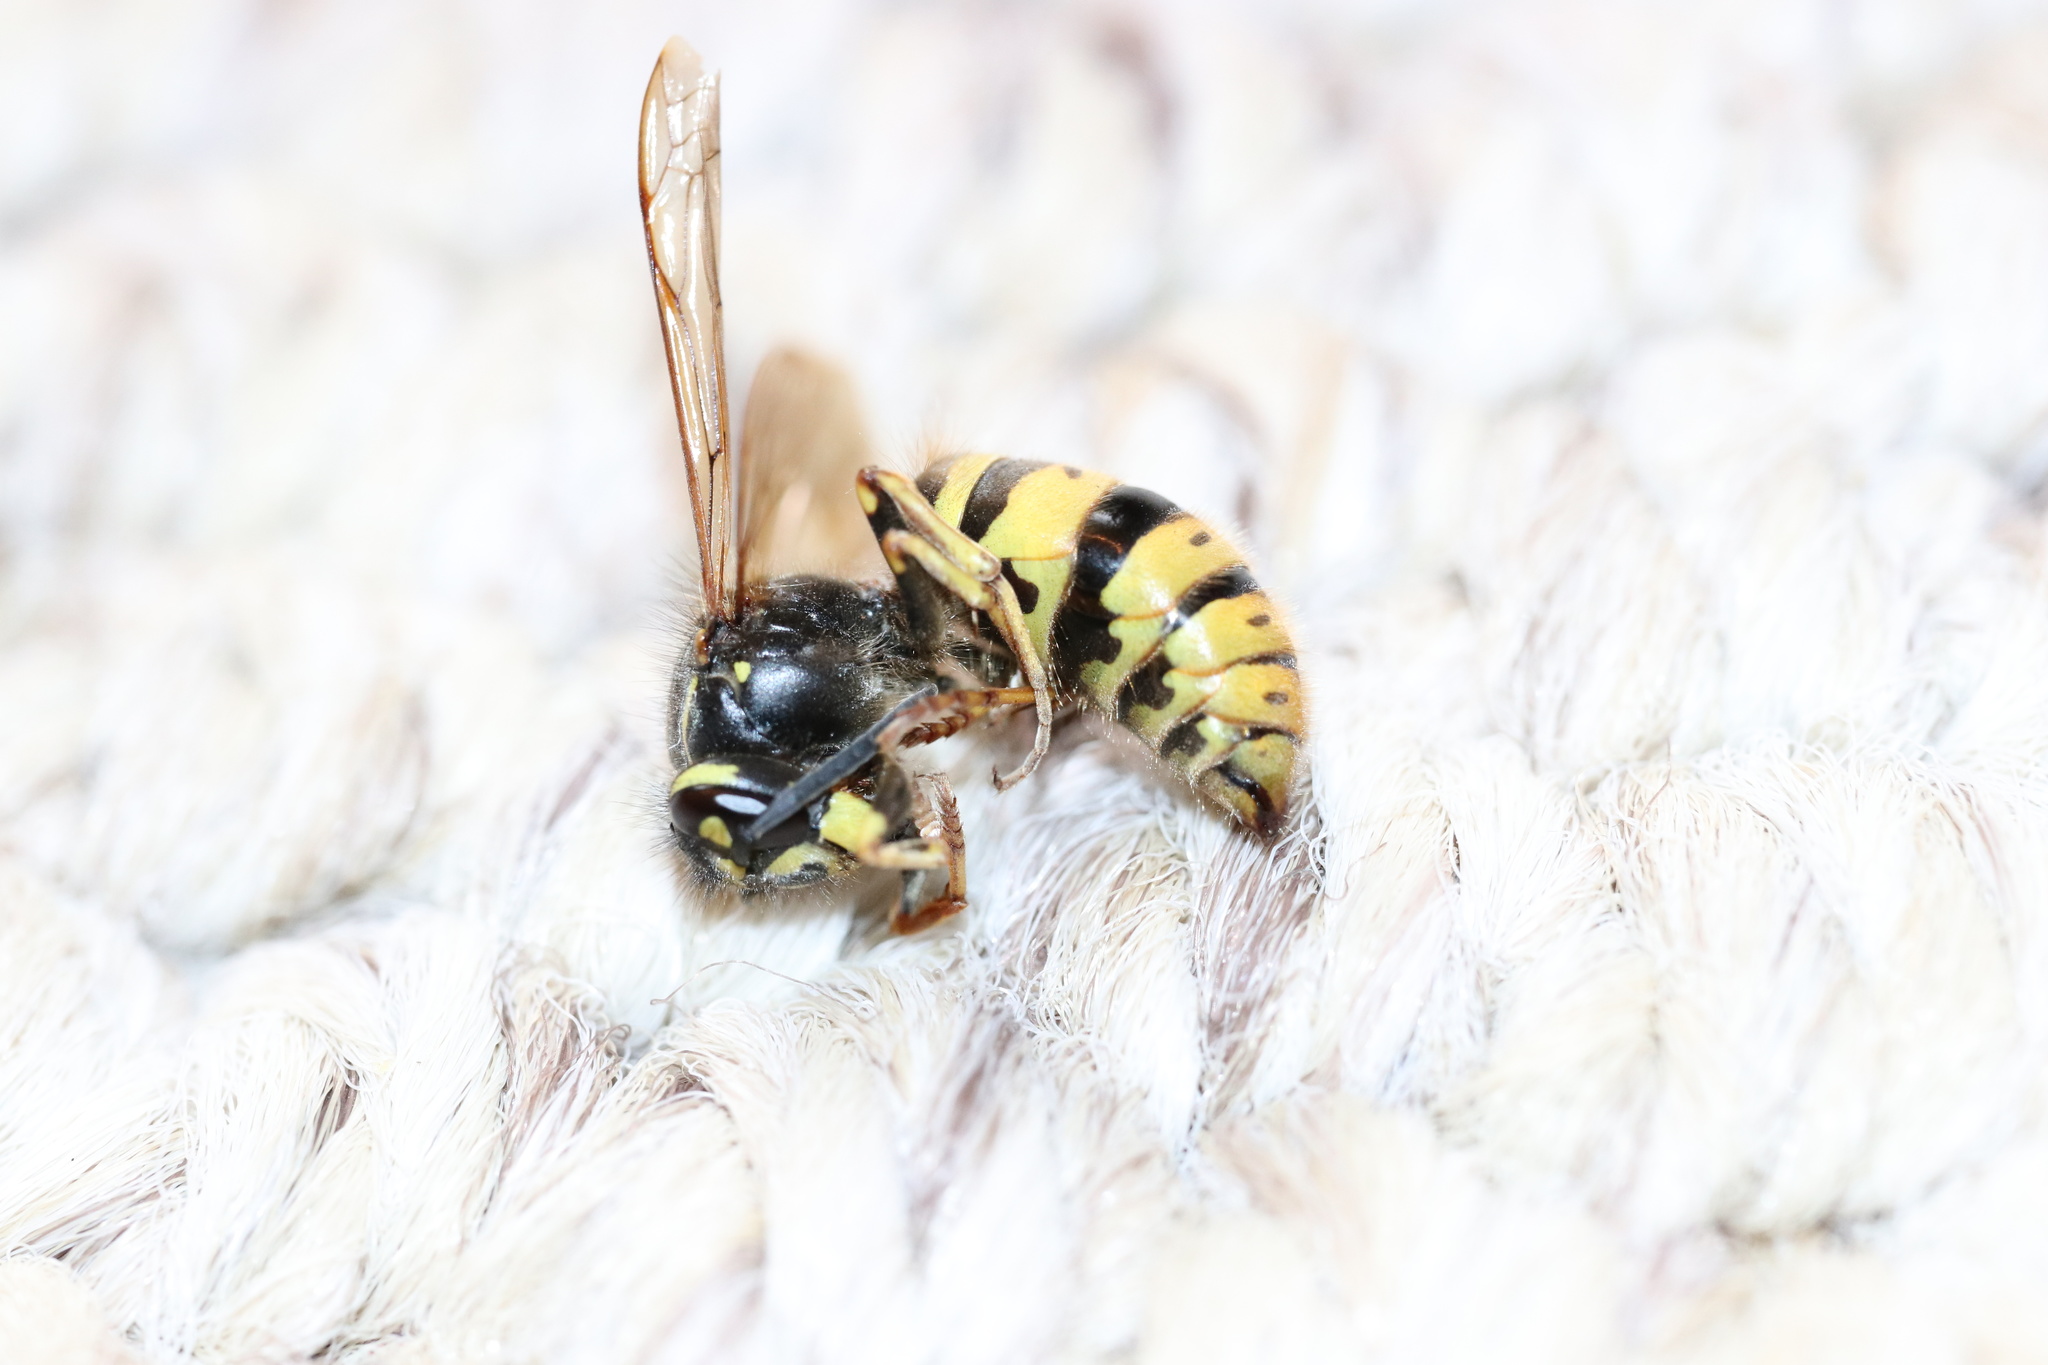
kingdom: Animalia
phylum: Arthropoda
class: Insecta
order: Hymenoptera
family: Vespidae
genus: Vespula
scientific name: Vespula vulgaris
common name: Common wasp
